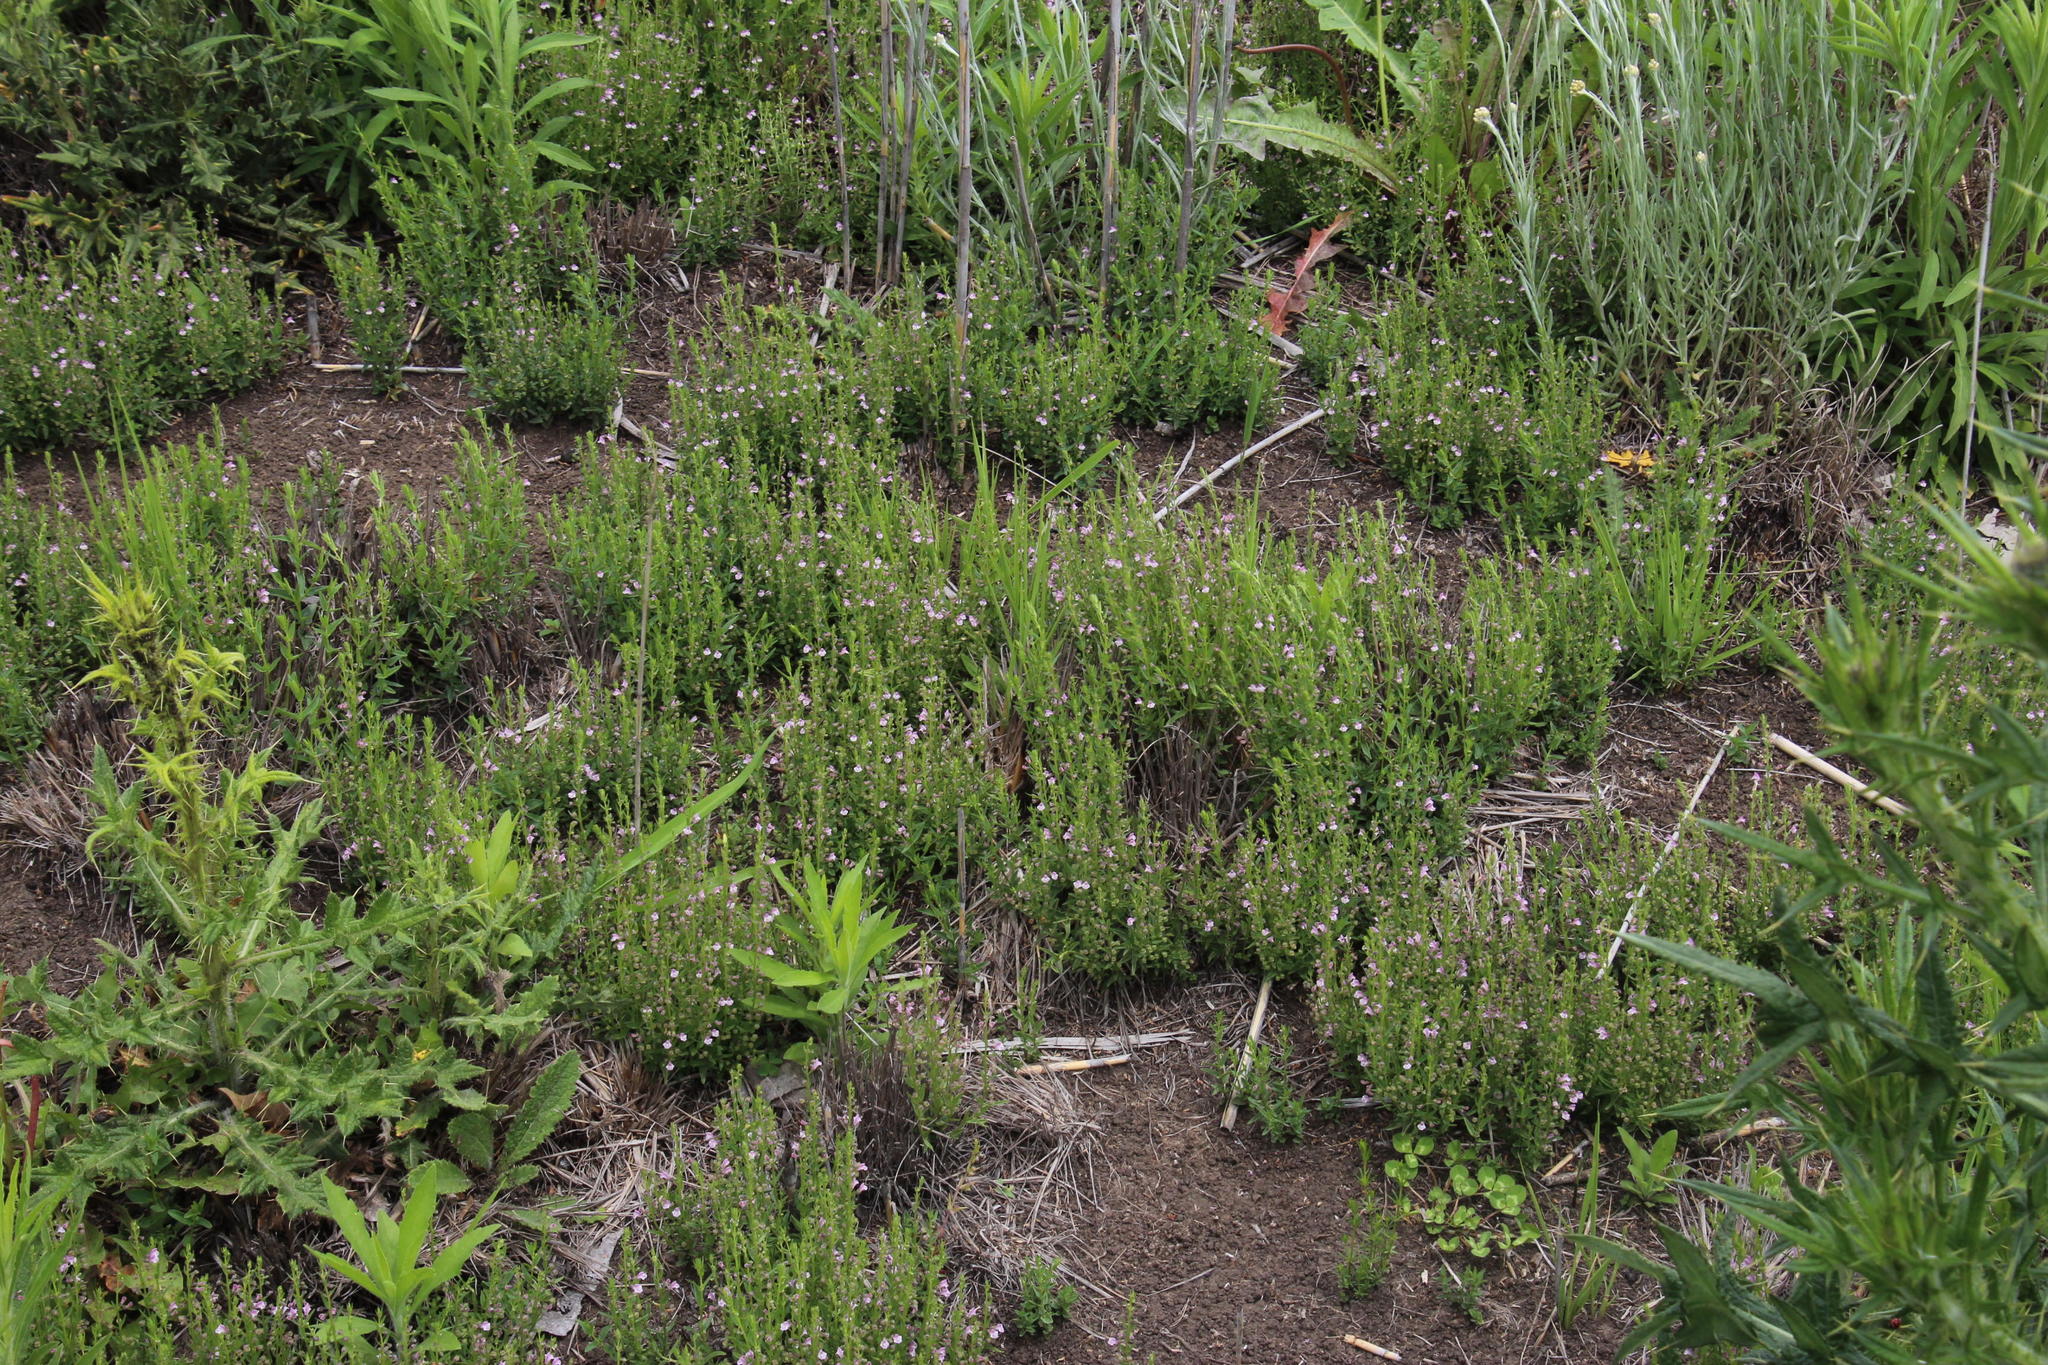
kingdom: Plantae
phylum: Tracheophyta
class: Magnoliopsida
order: Lamiales
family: Lamiaceae
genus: Scutellaria
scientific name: Scutellaria racemosa
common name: South american skullcap
